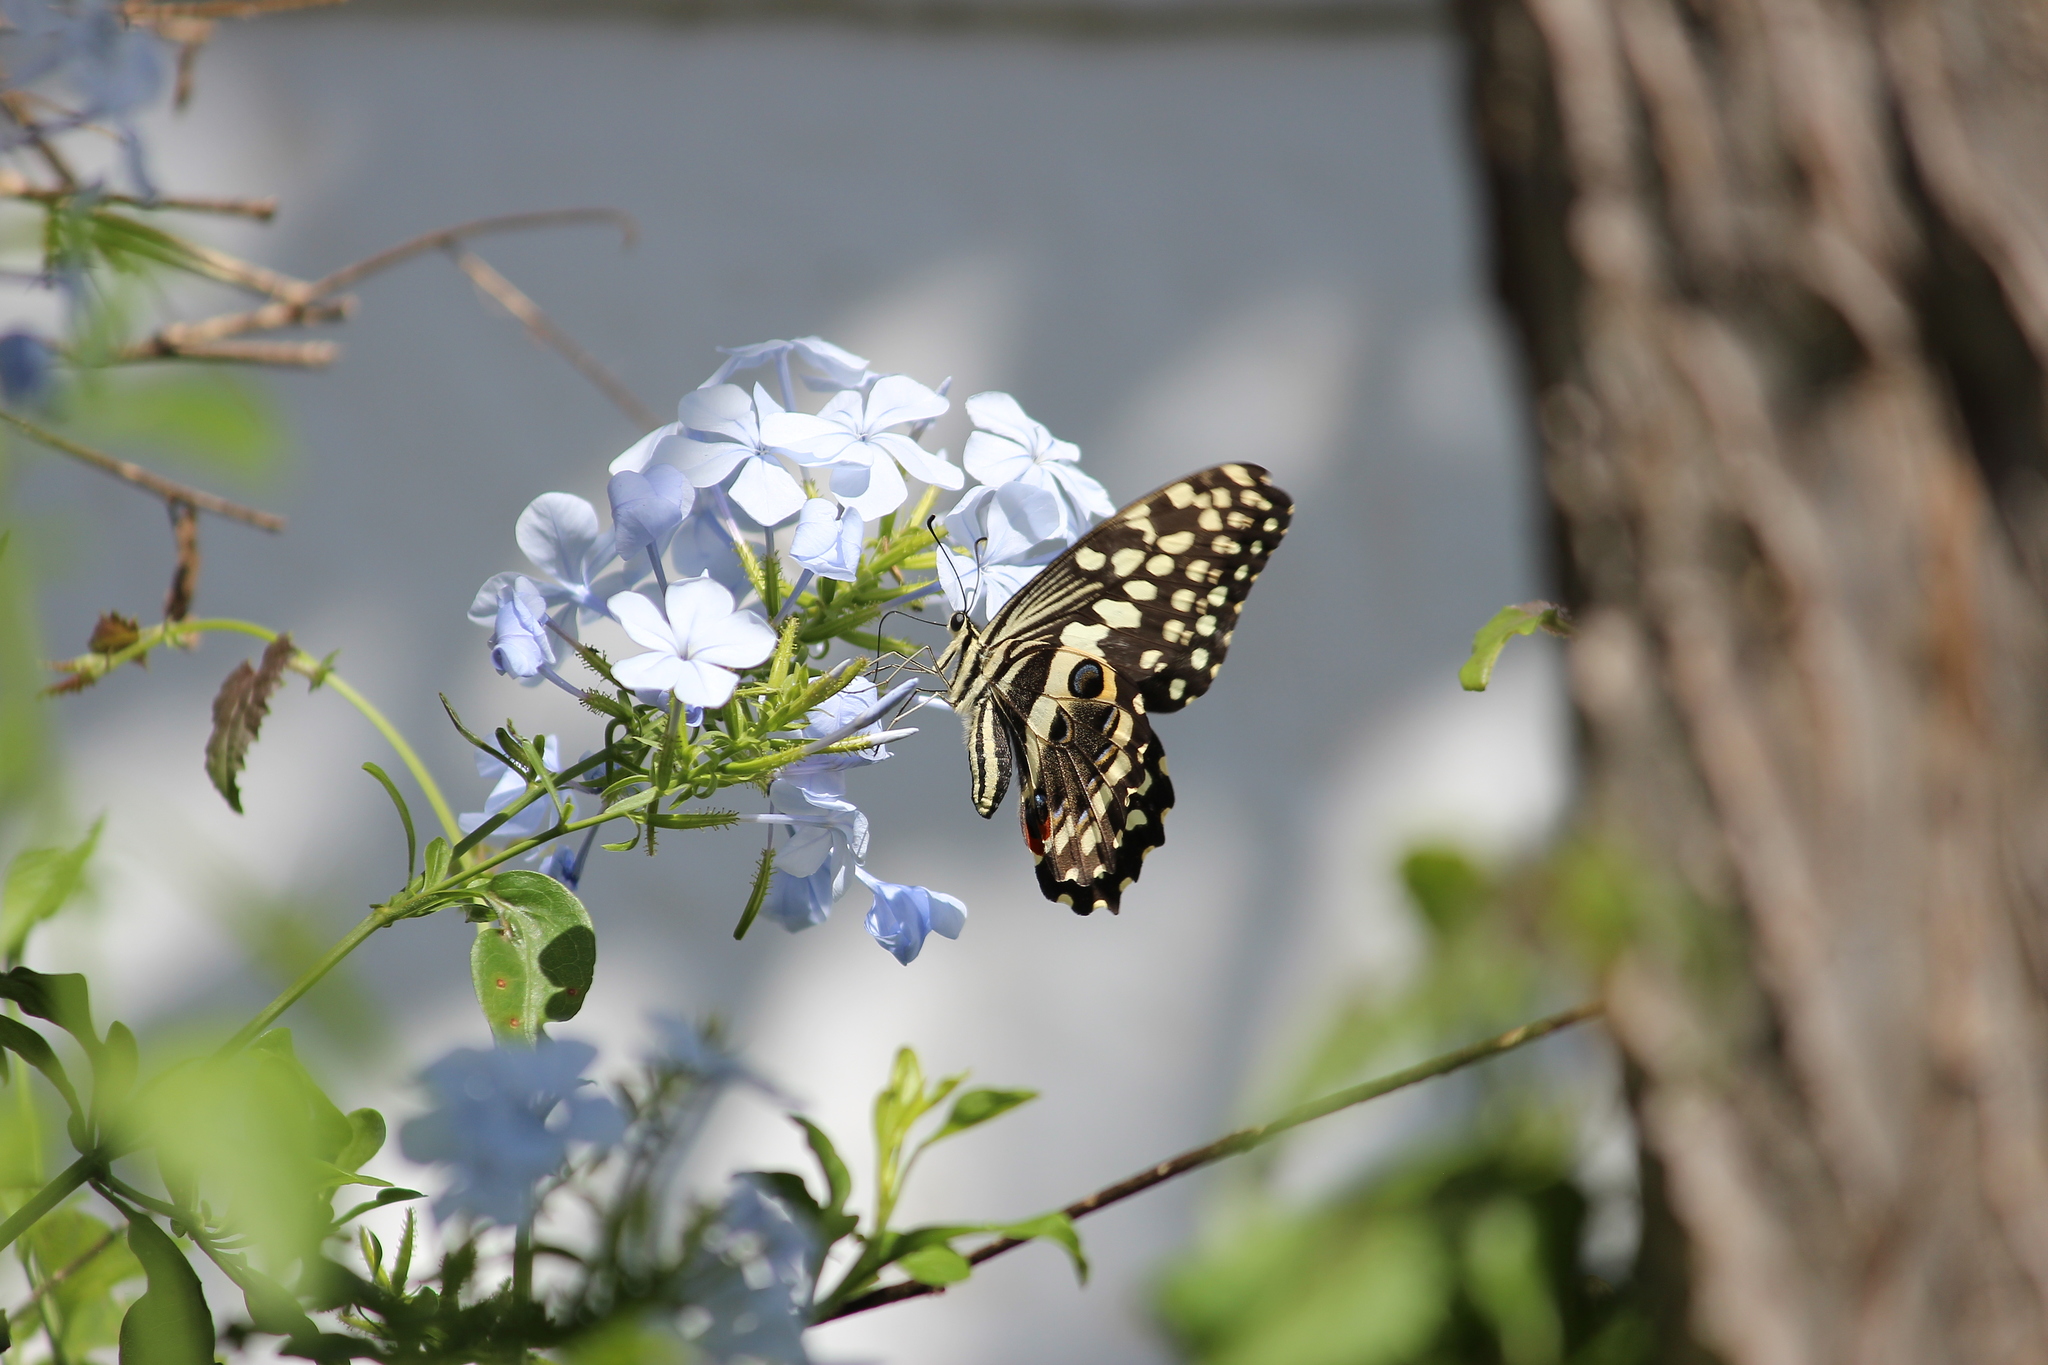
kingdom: Animalia
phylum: Arthropoda
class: Insecta
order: Lepidoptera
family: Papilionidae
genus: Papilio
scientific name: Papilio demodocus
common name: Christmas butterfly
